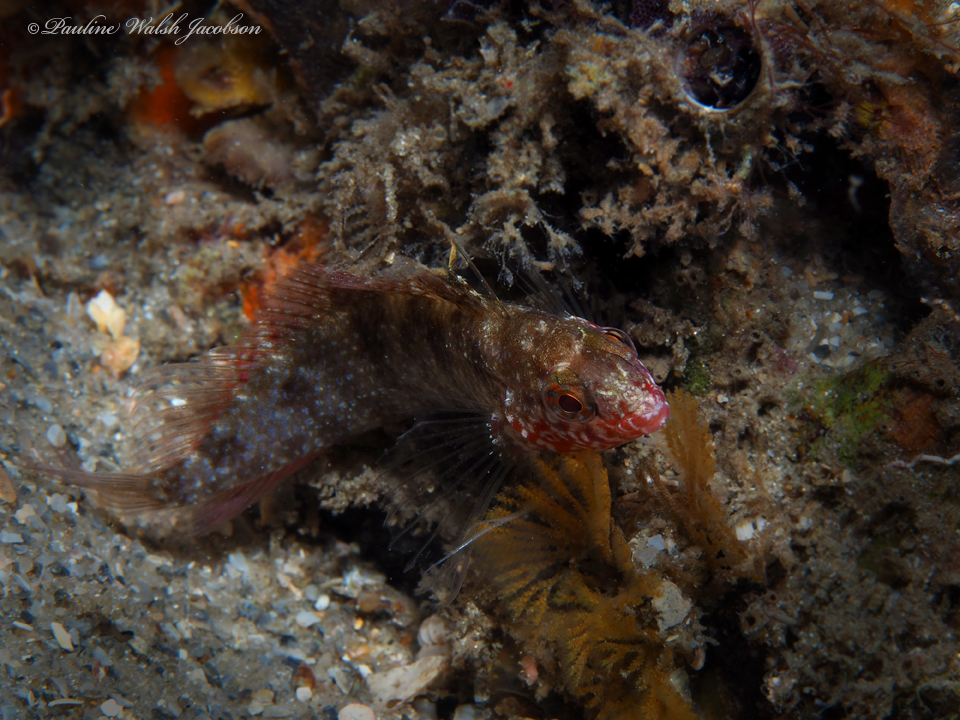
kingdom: Animalia
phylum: Chordata
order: Perciformes
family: Labrisomidae
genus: Malacoctenus
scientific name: Malacoctenus macropus
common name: Rosy blenny
